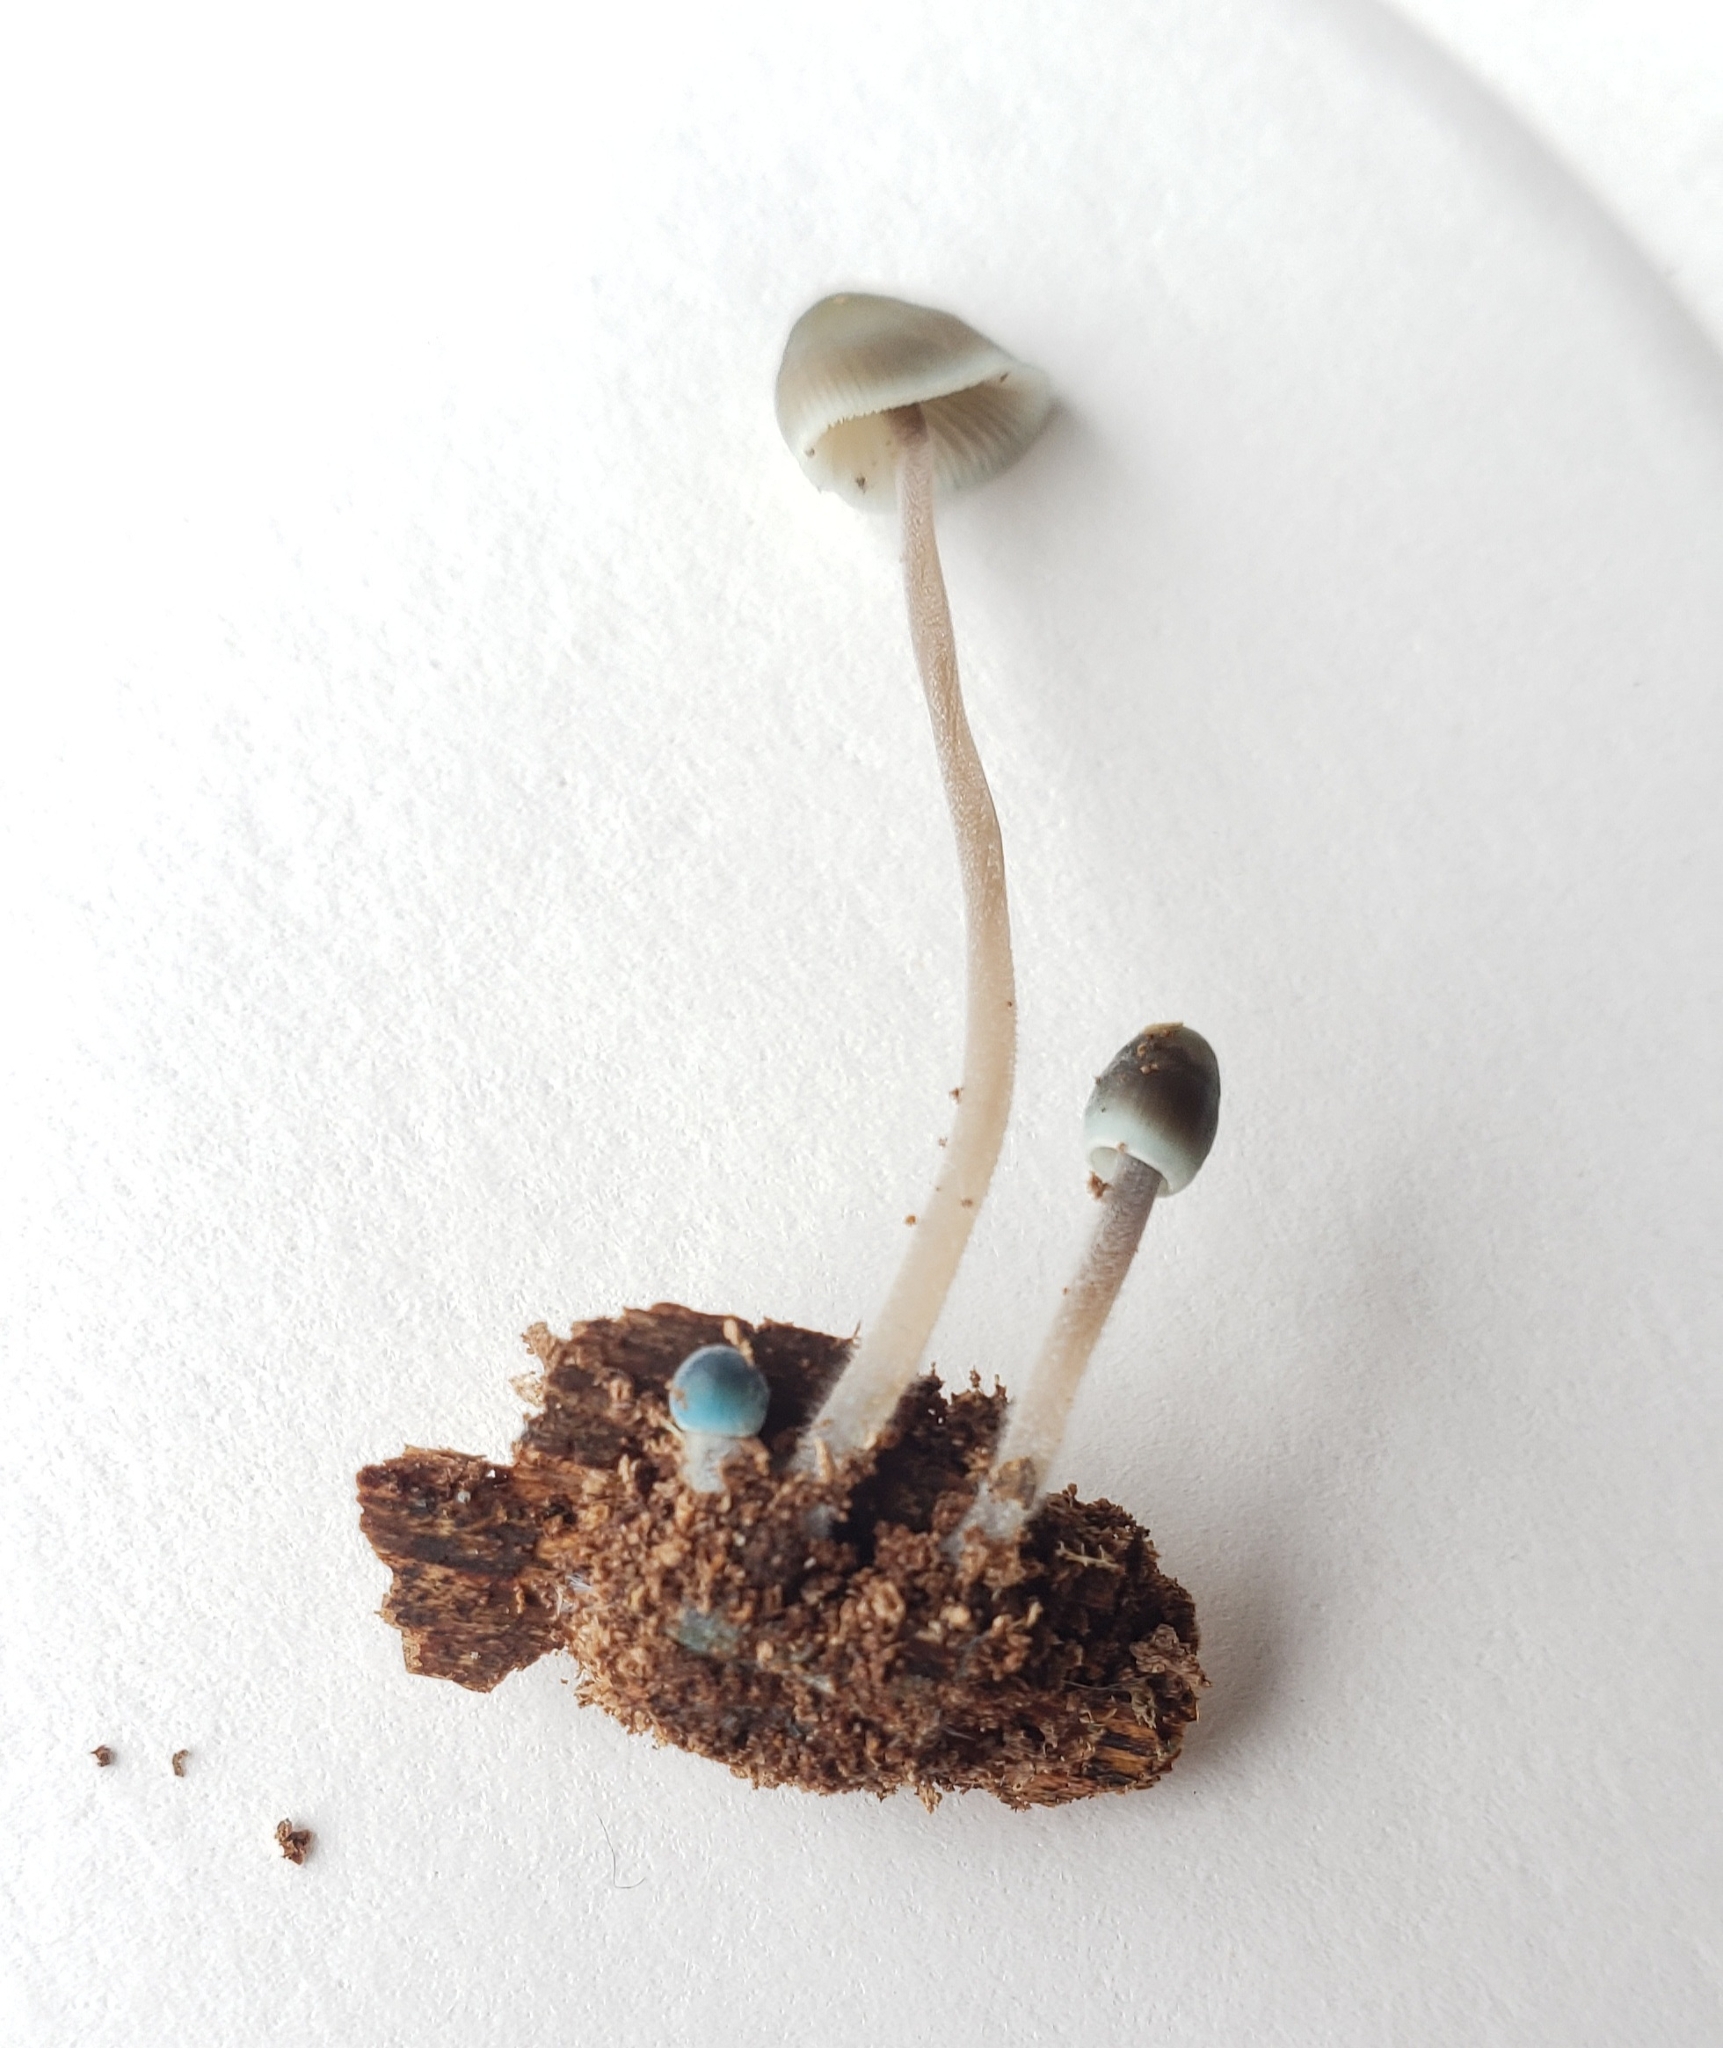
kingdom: Fungi
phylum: Basidiomycota
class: Agaricomycetes
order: Agaricales
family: Mycenaceae
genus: Mycena
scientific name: Mycena subcaerulea
